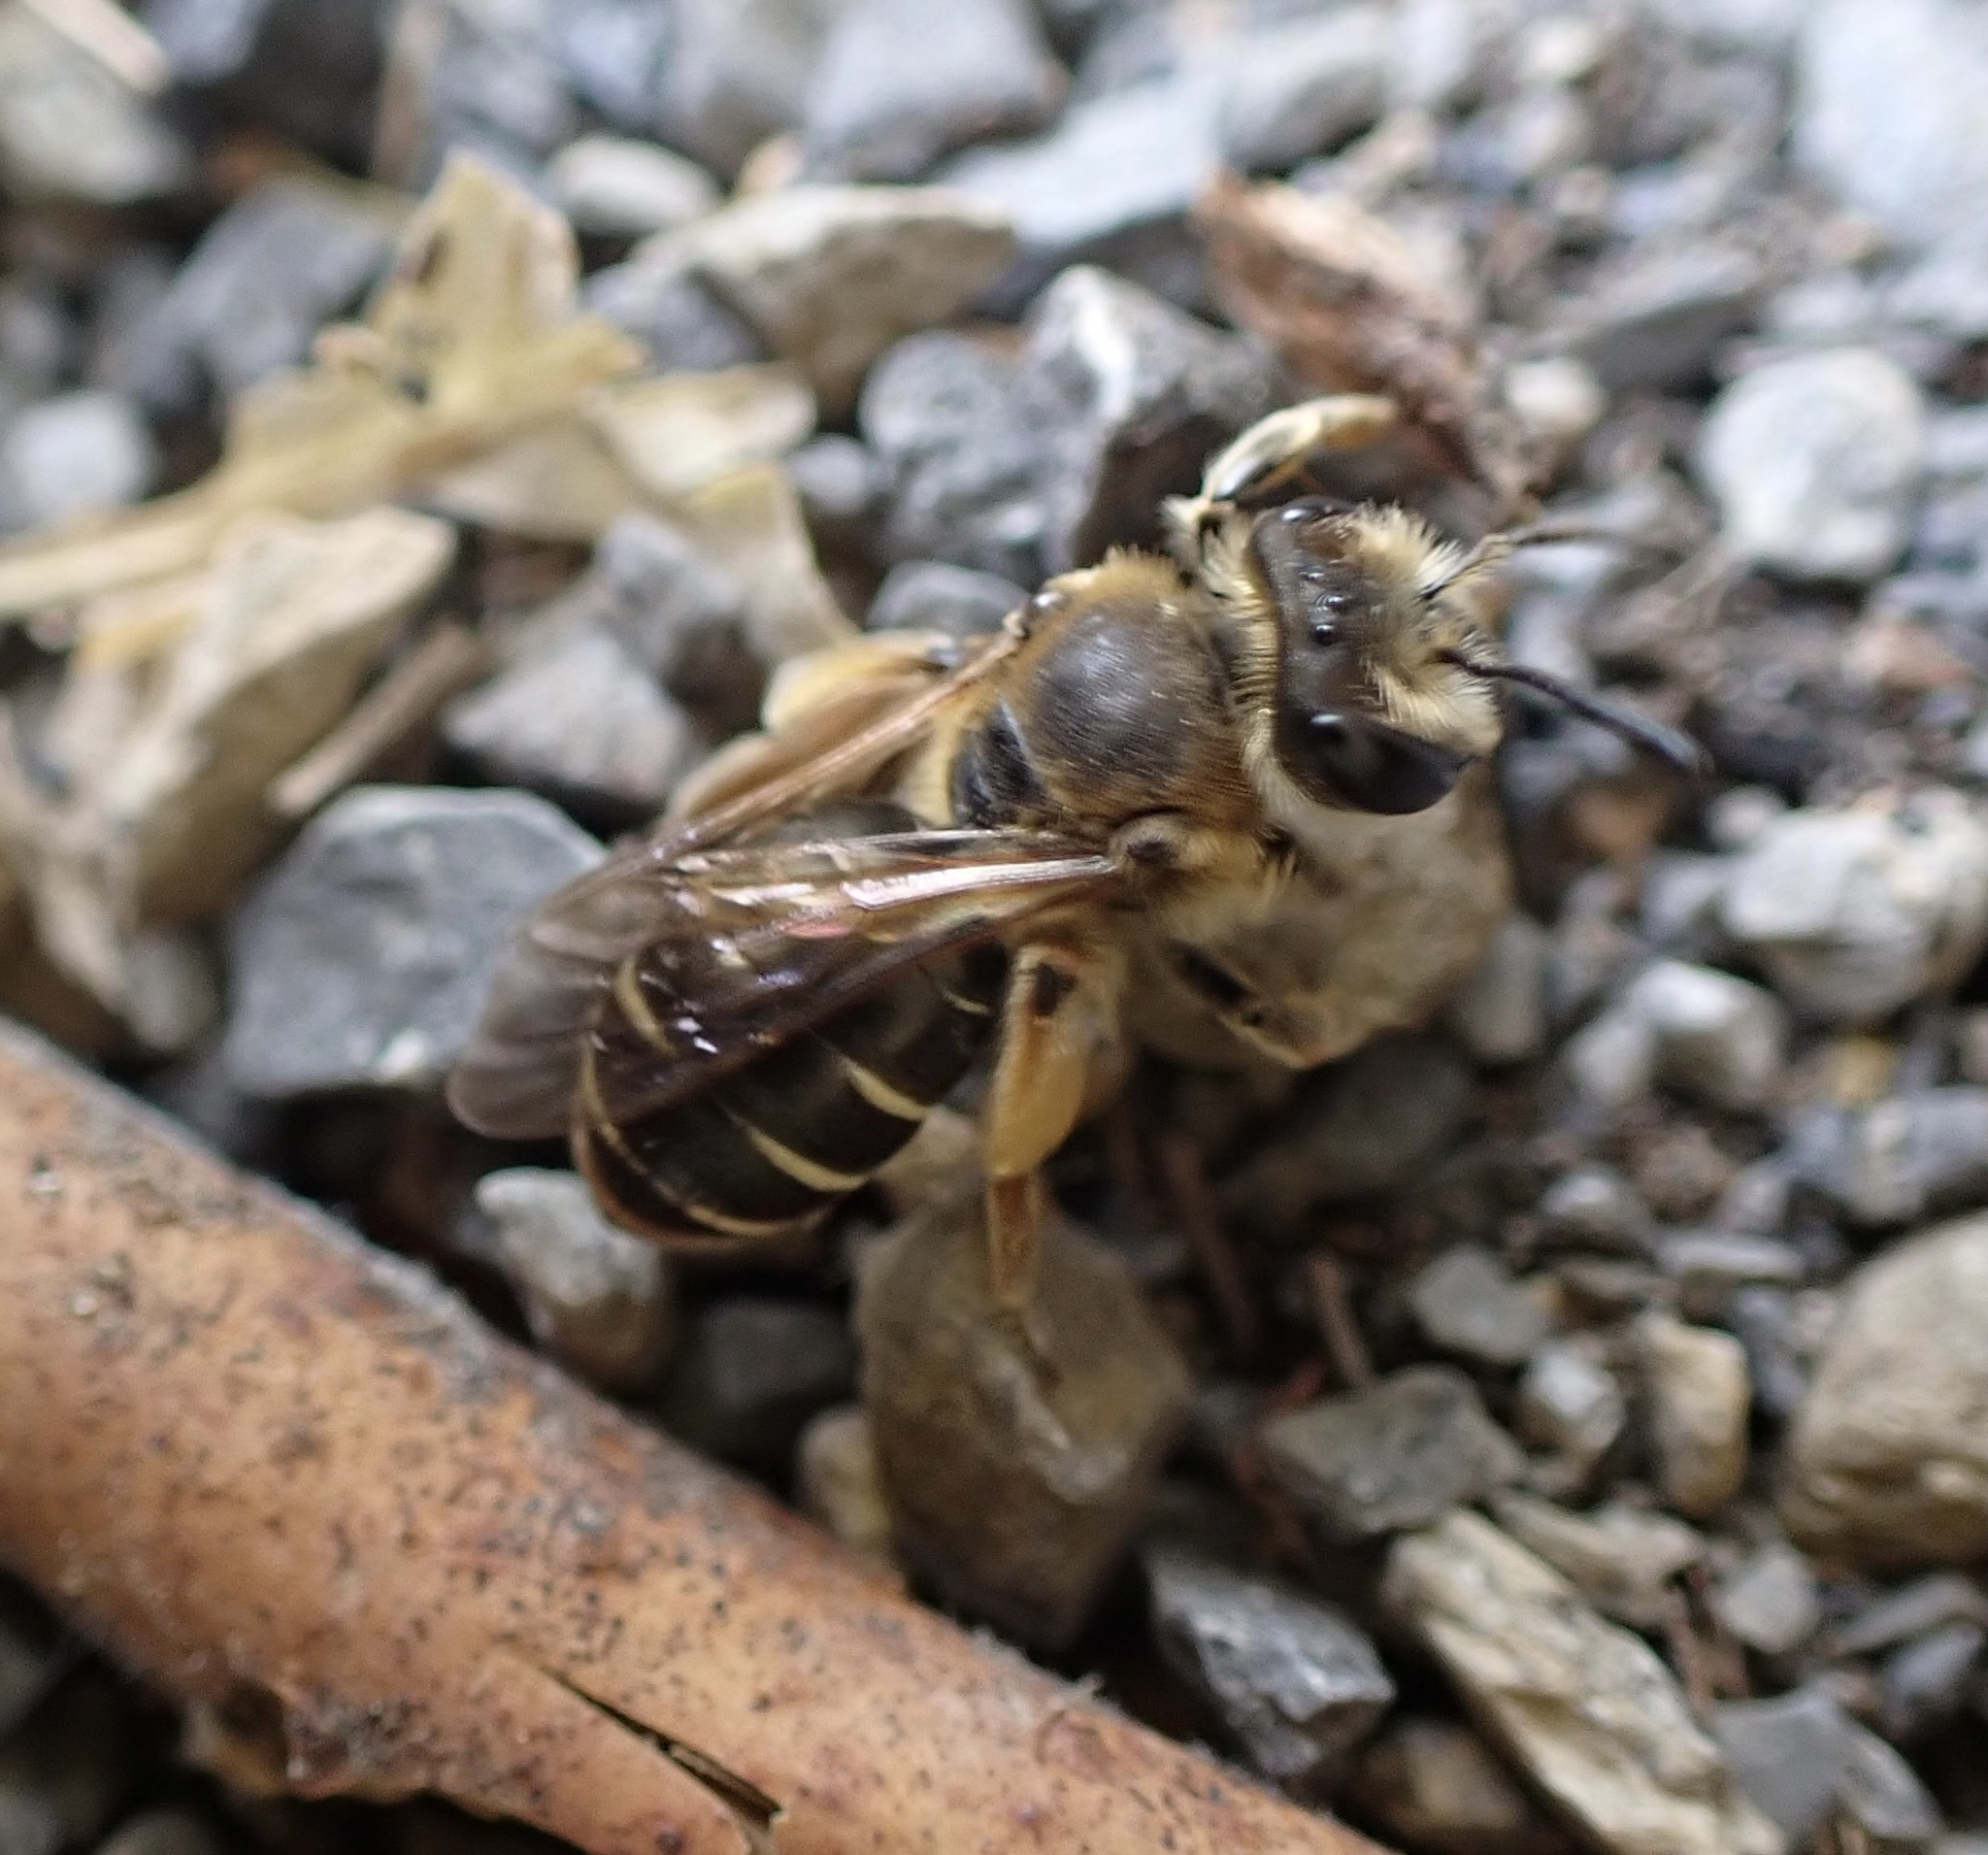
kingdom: Animalia
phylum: Arthropoda
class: Insecta
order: Hymenoptera
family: Andrenidae
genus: Andrena
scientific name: Andrena wilkella
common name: Wilke's mining bee
